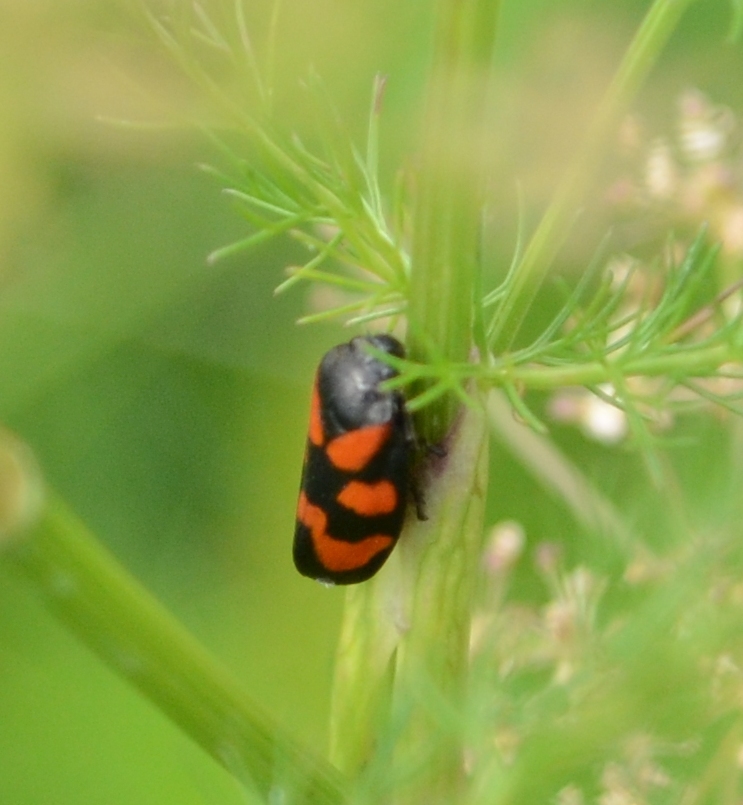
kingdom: Animalia
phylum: Arthropoda
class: Insecta
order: Hemiptera
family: Cercopidae
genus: Cercopis
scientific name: Cercopis vulnerata
